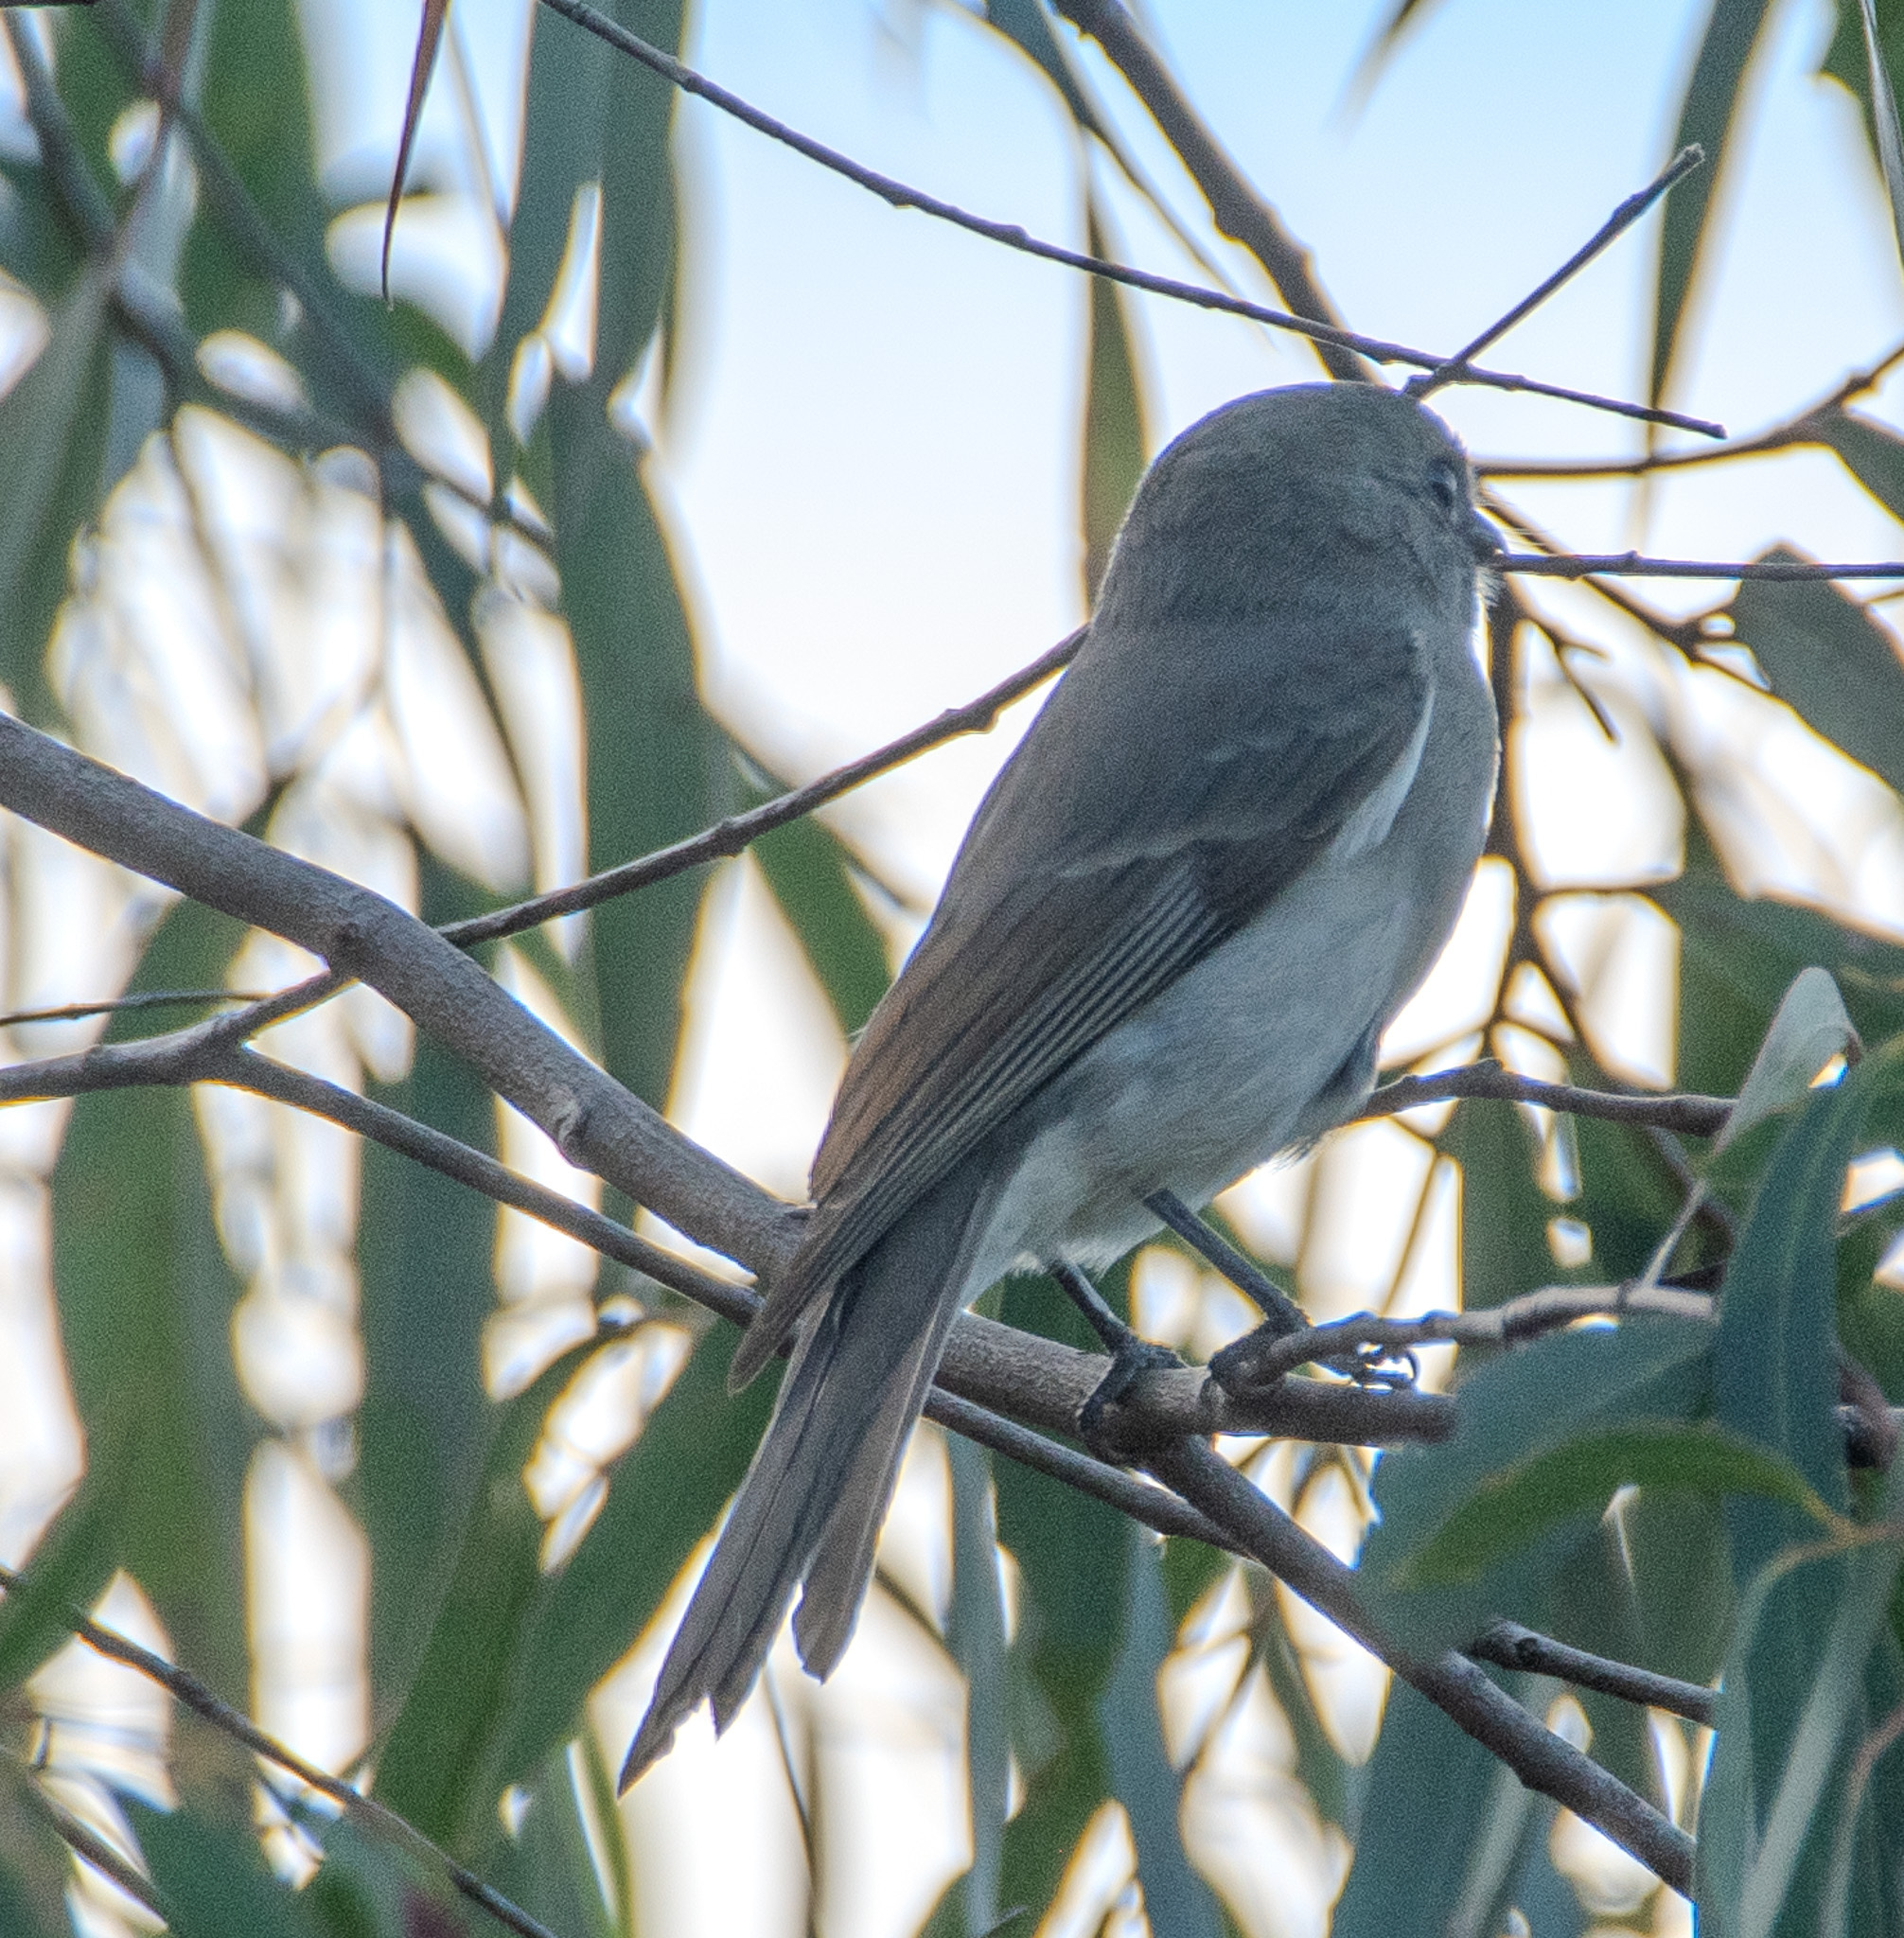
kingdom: Animalia
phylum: Chordata
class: Aves
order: Passeriformes
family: Pachycephalidae
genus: Pachycephala
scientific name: Pachycephala pectoralis
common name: Australian golden whistler
